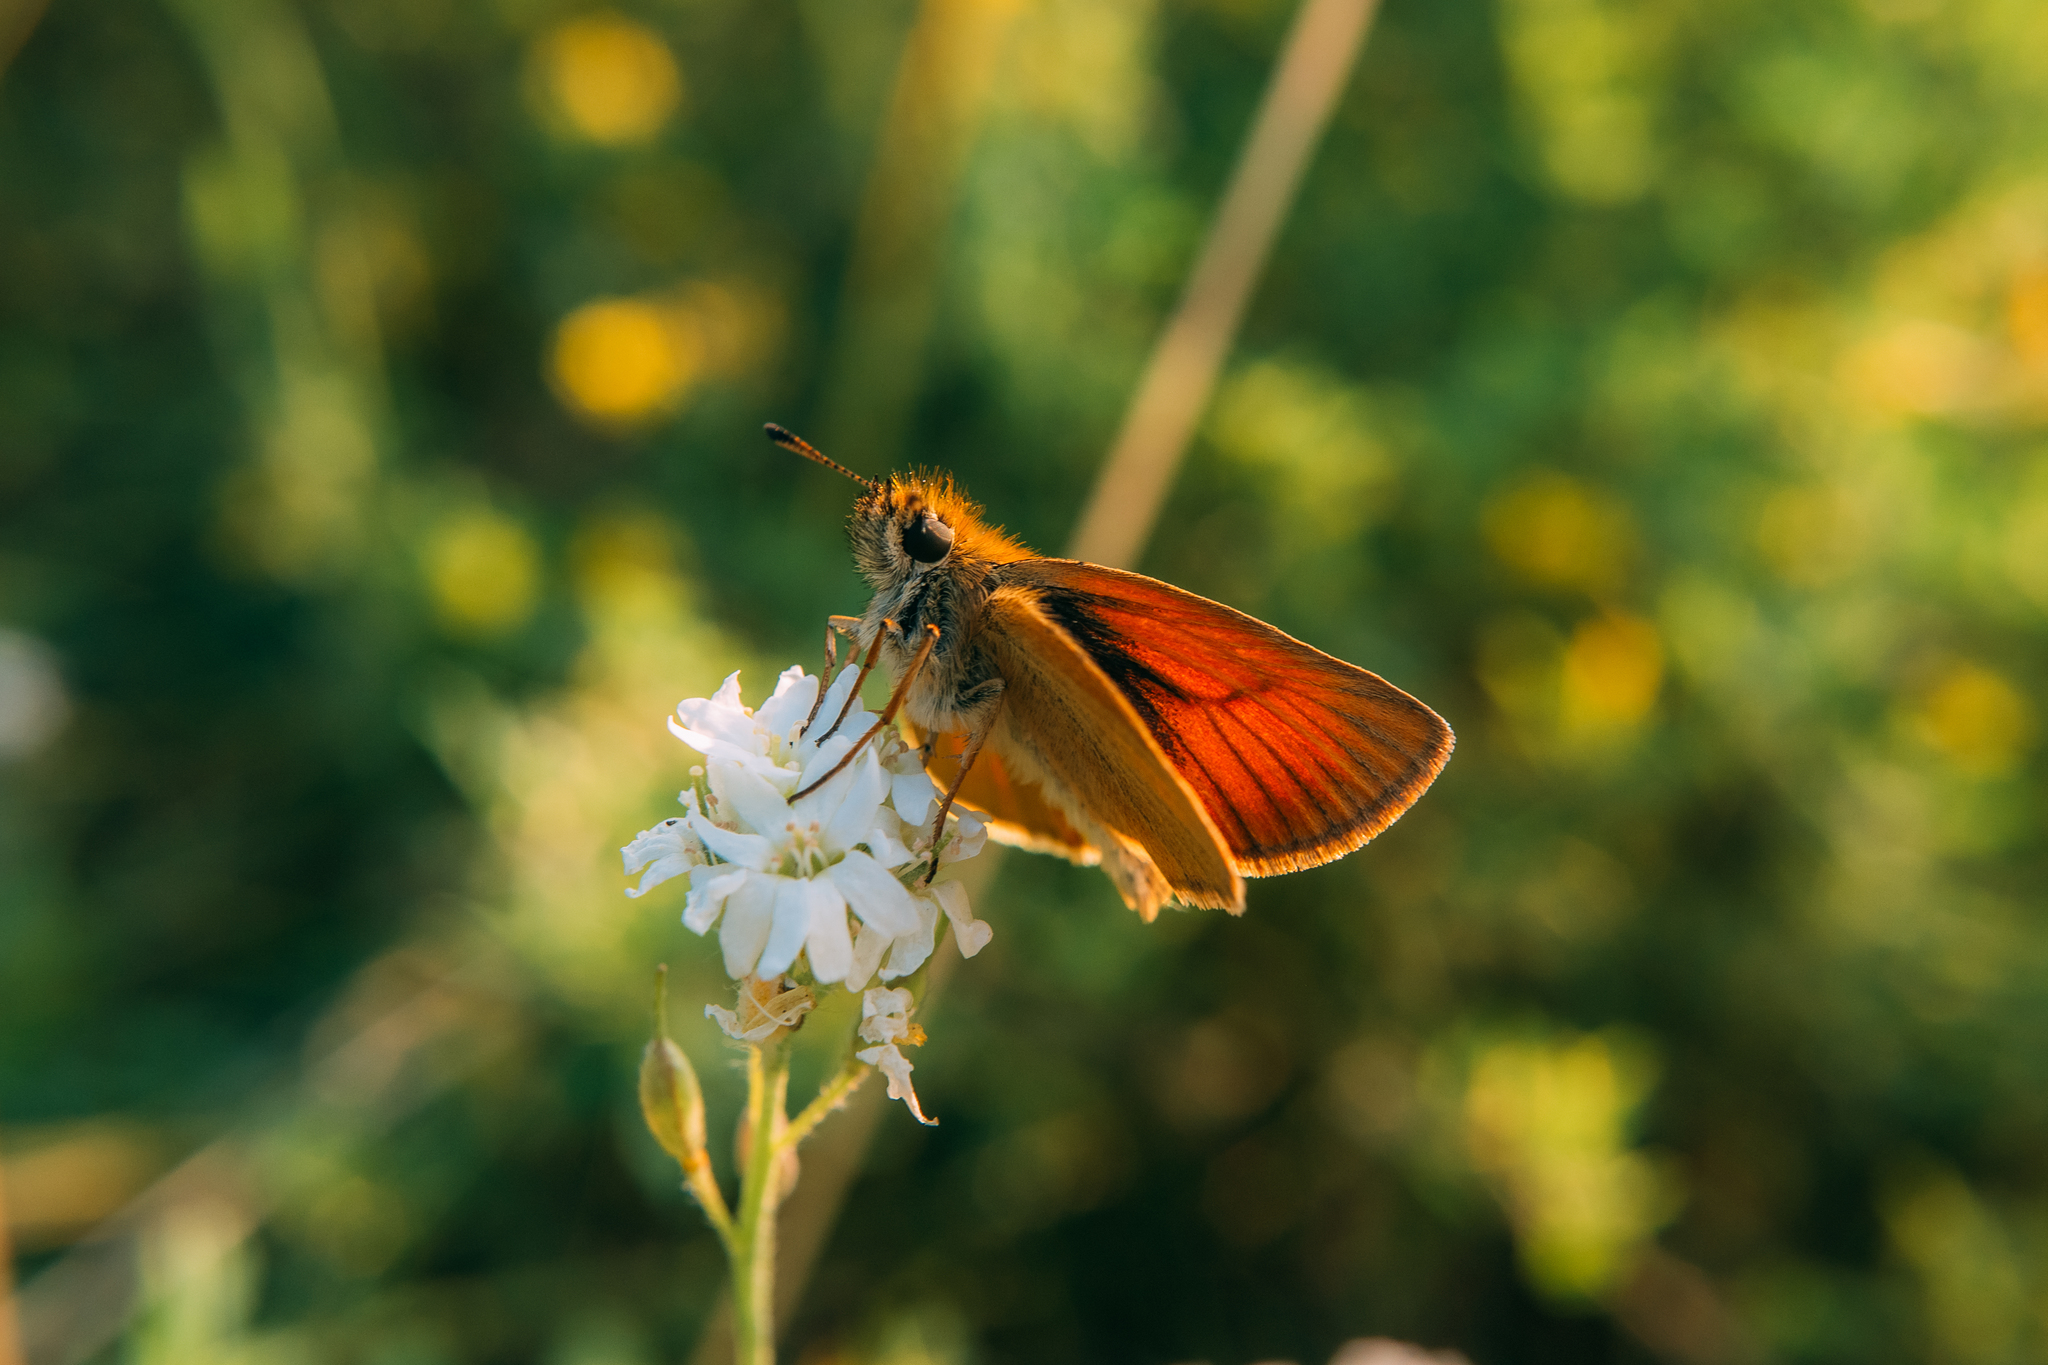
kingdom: Animalia
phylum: Arthropoda
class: Insecta
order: Lepidoptera
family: Hesperiidae
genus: Thymelicus
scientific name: Thymelicus lineola
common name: Essex skipper
